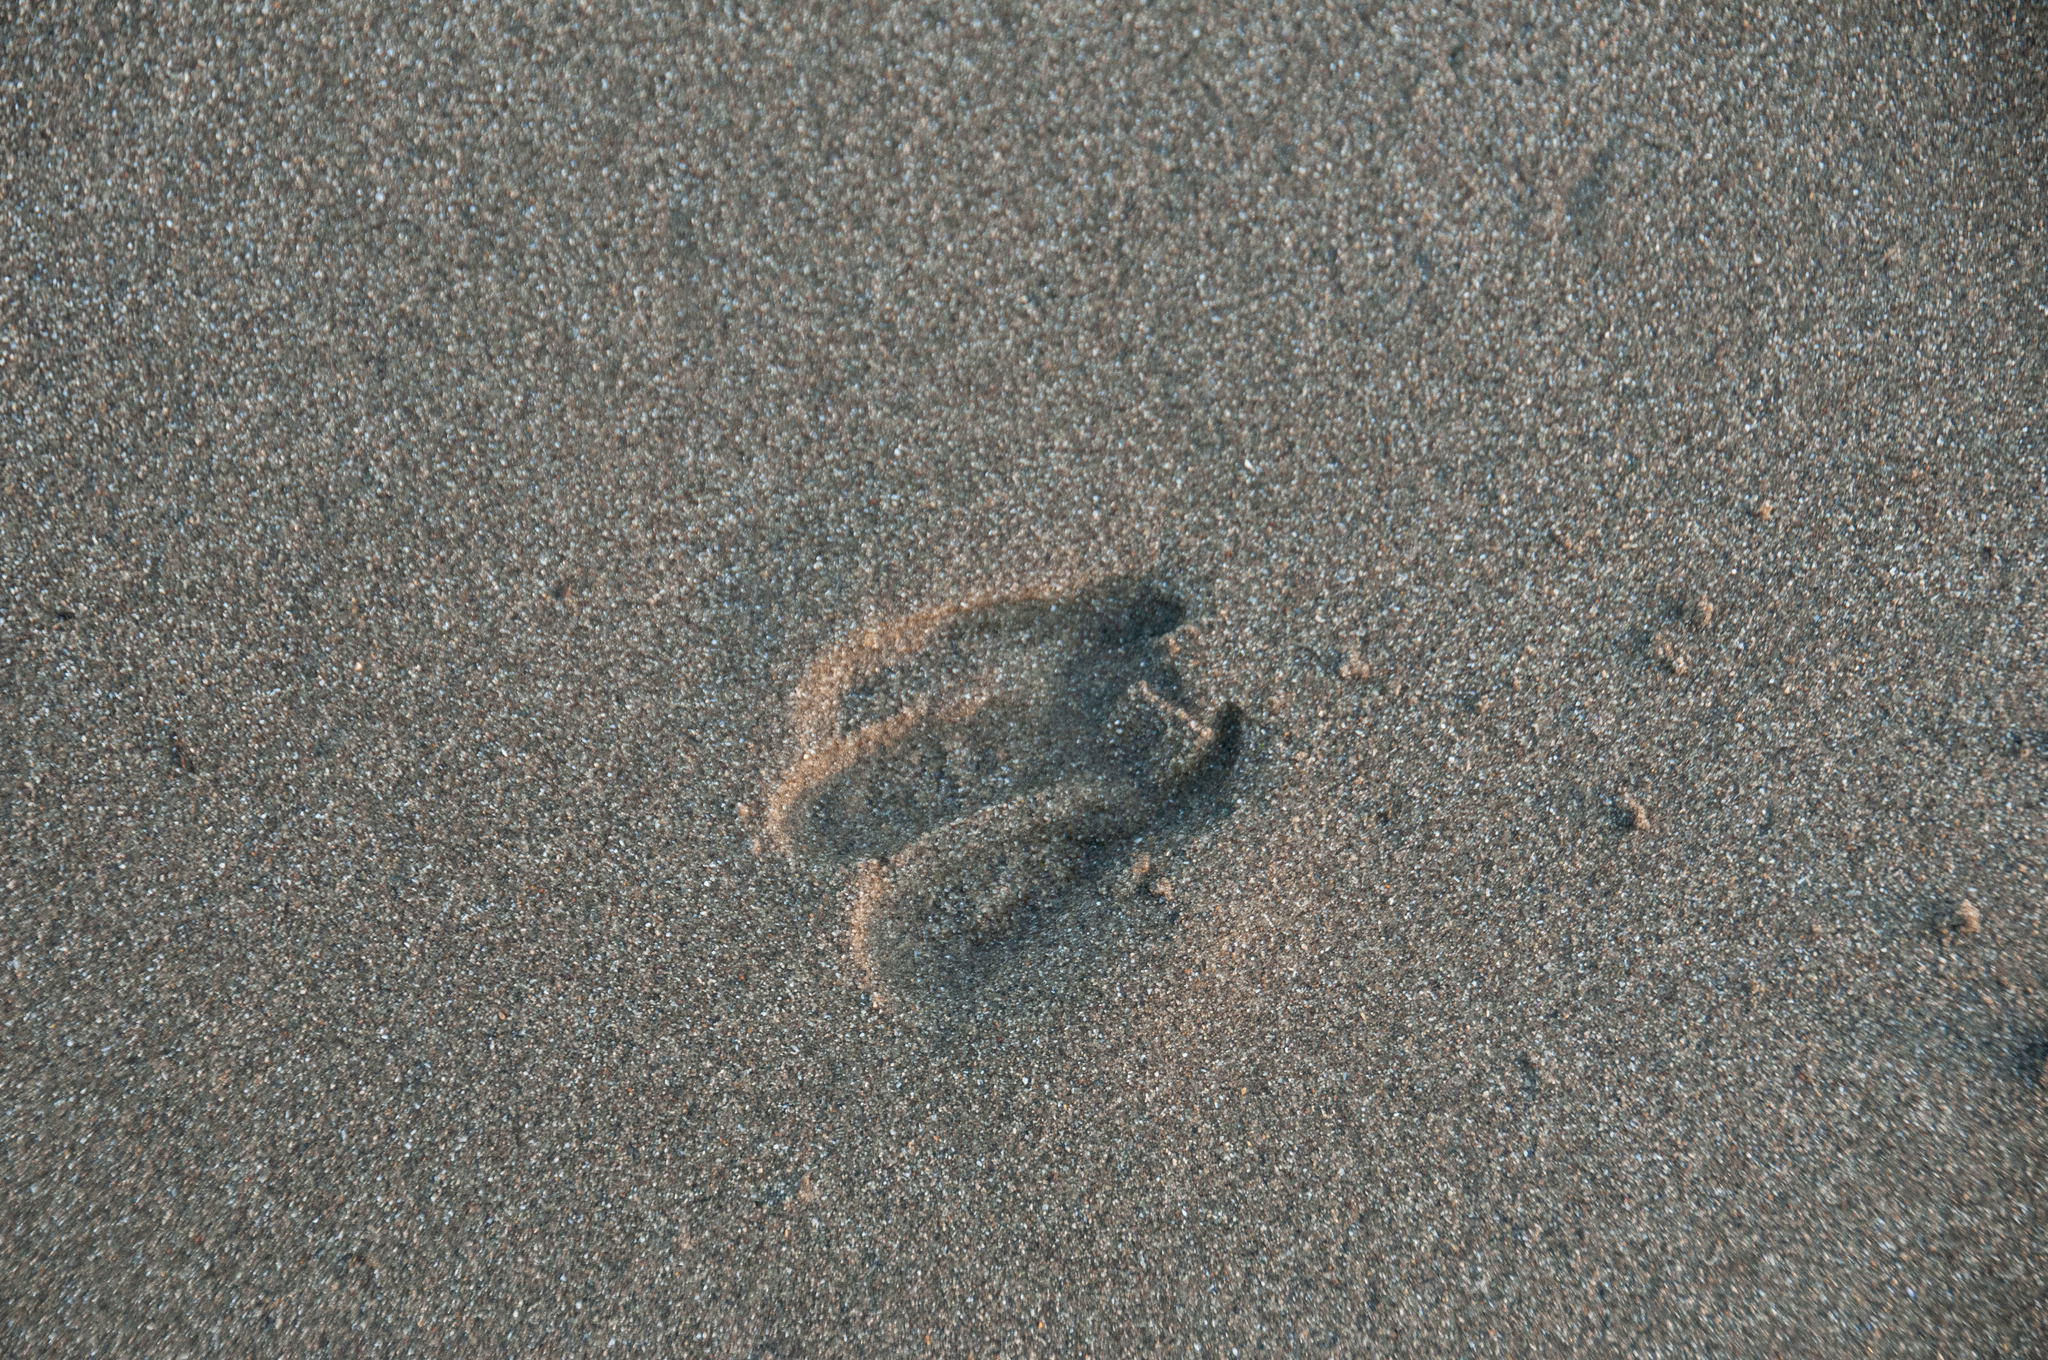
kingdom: Animalia
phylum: Chordata
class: Mammalia
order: Artiodactyla
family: Cervidae
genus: Odocoileus
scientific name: Odocoileus hemionus
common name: Mule deer
